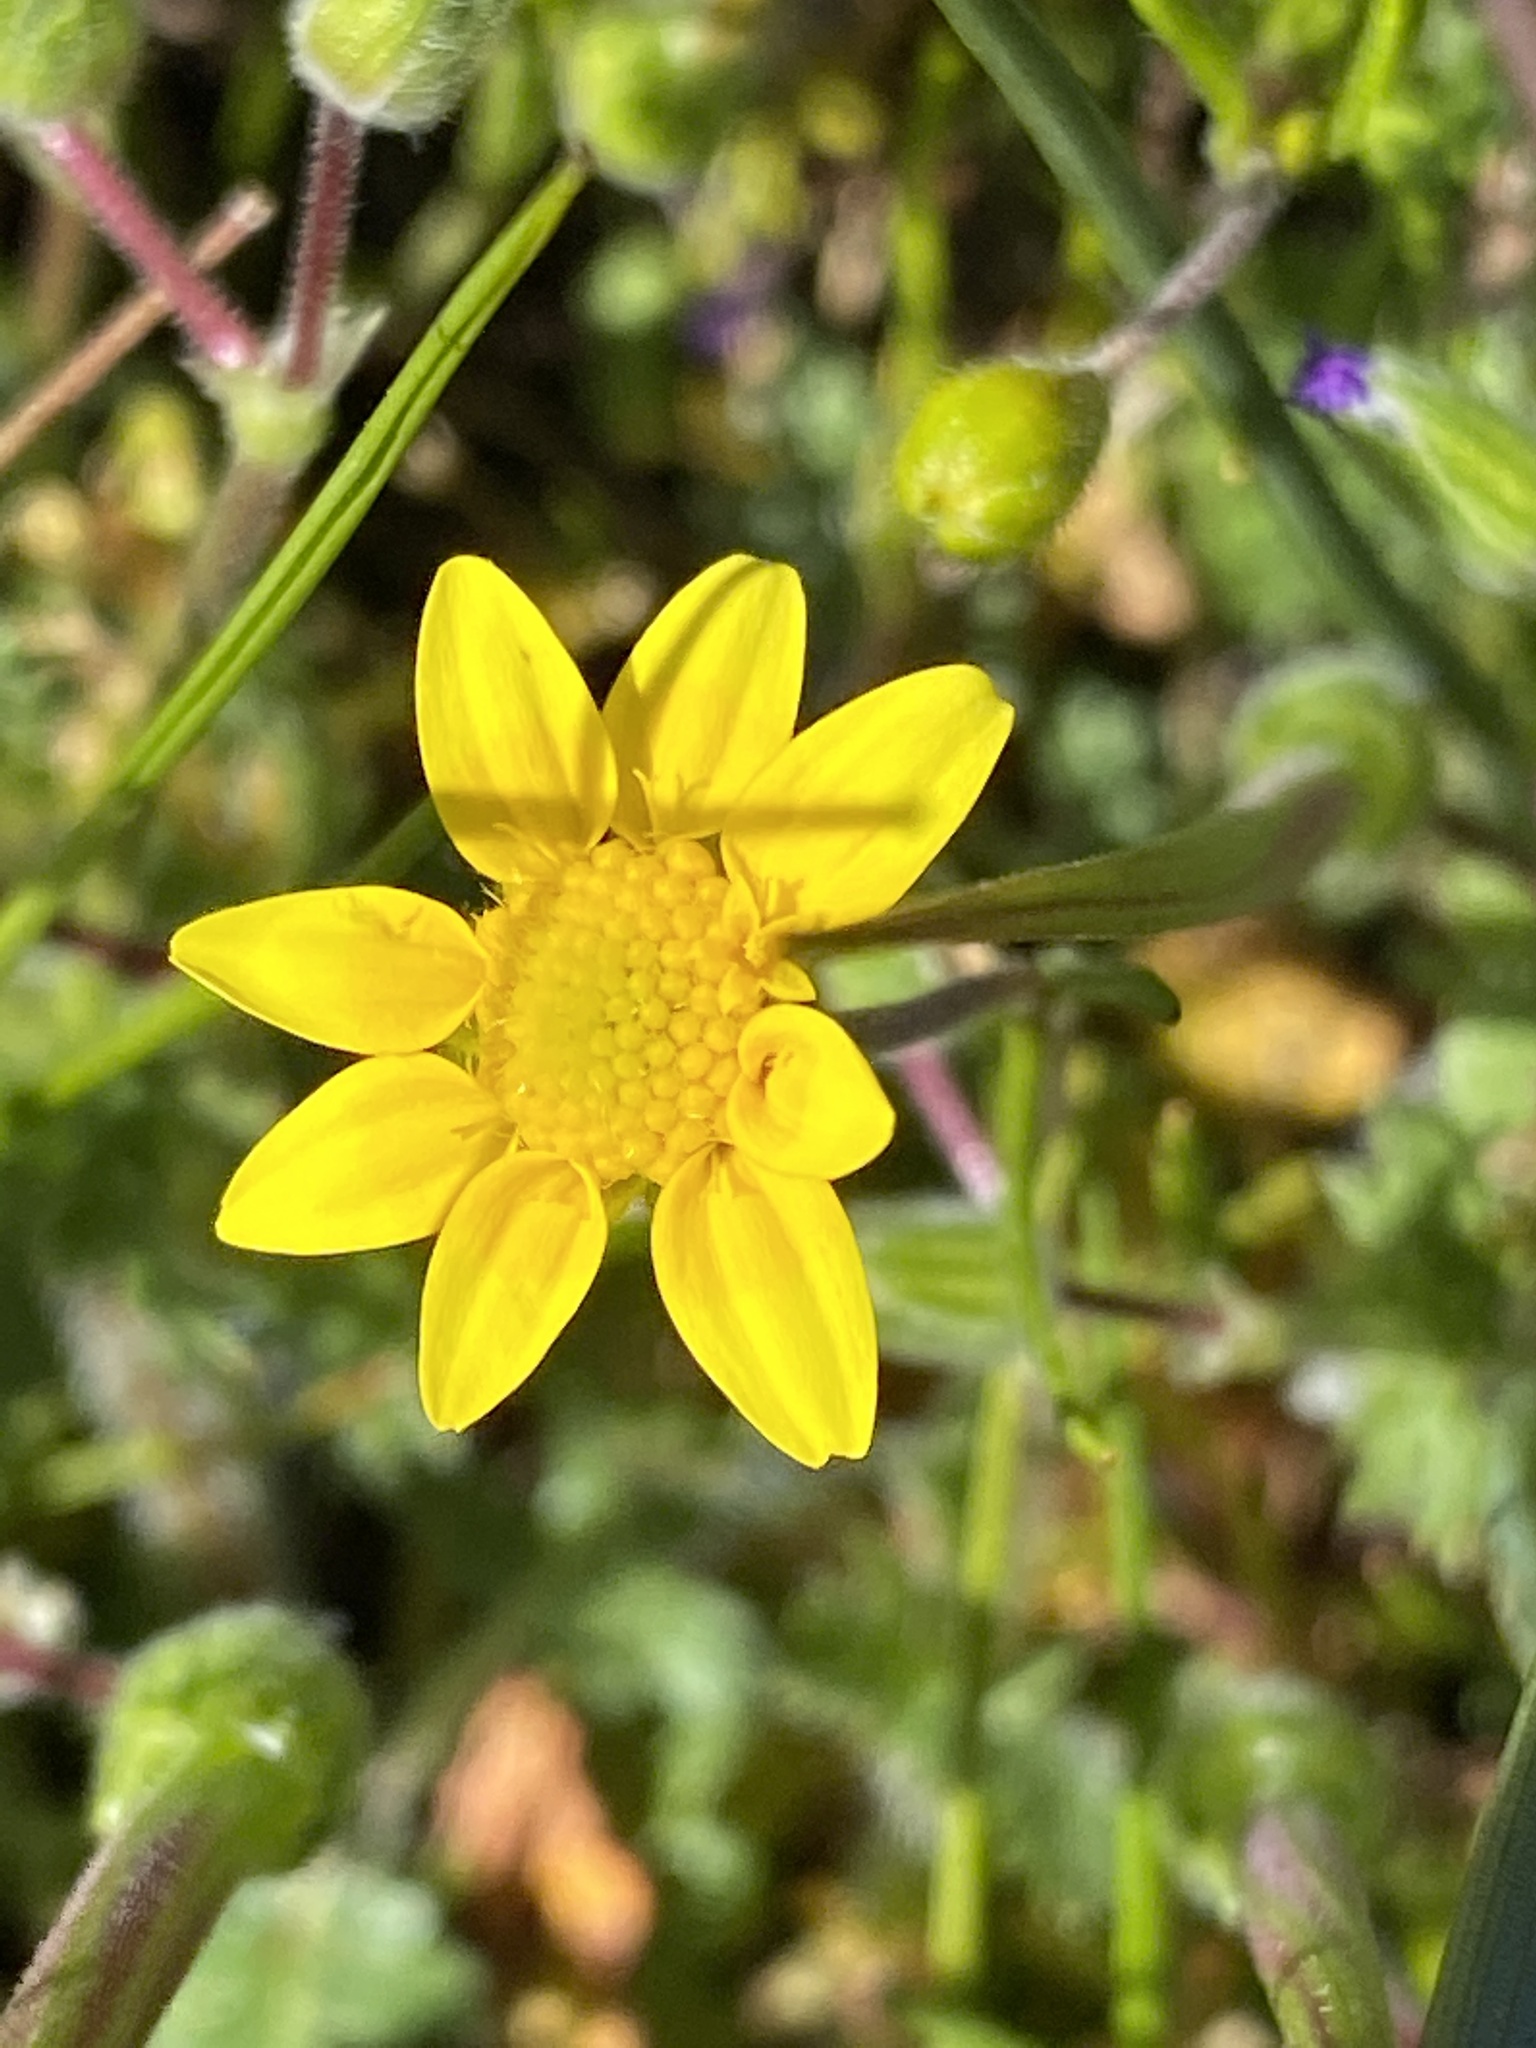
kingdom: Plantae
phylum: Tracheophyta
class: Magnoliopsida
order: Asterales
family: Asteraceae
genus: Lasthenia
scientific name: Lasthenia californica
